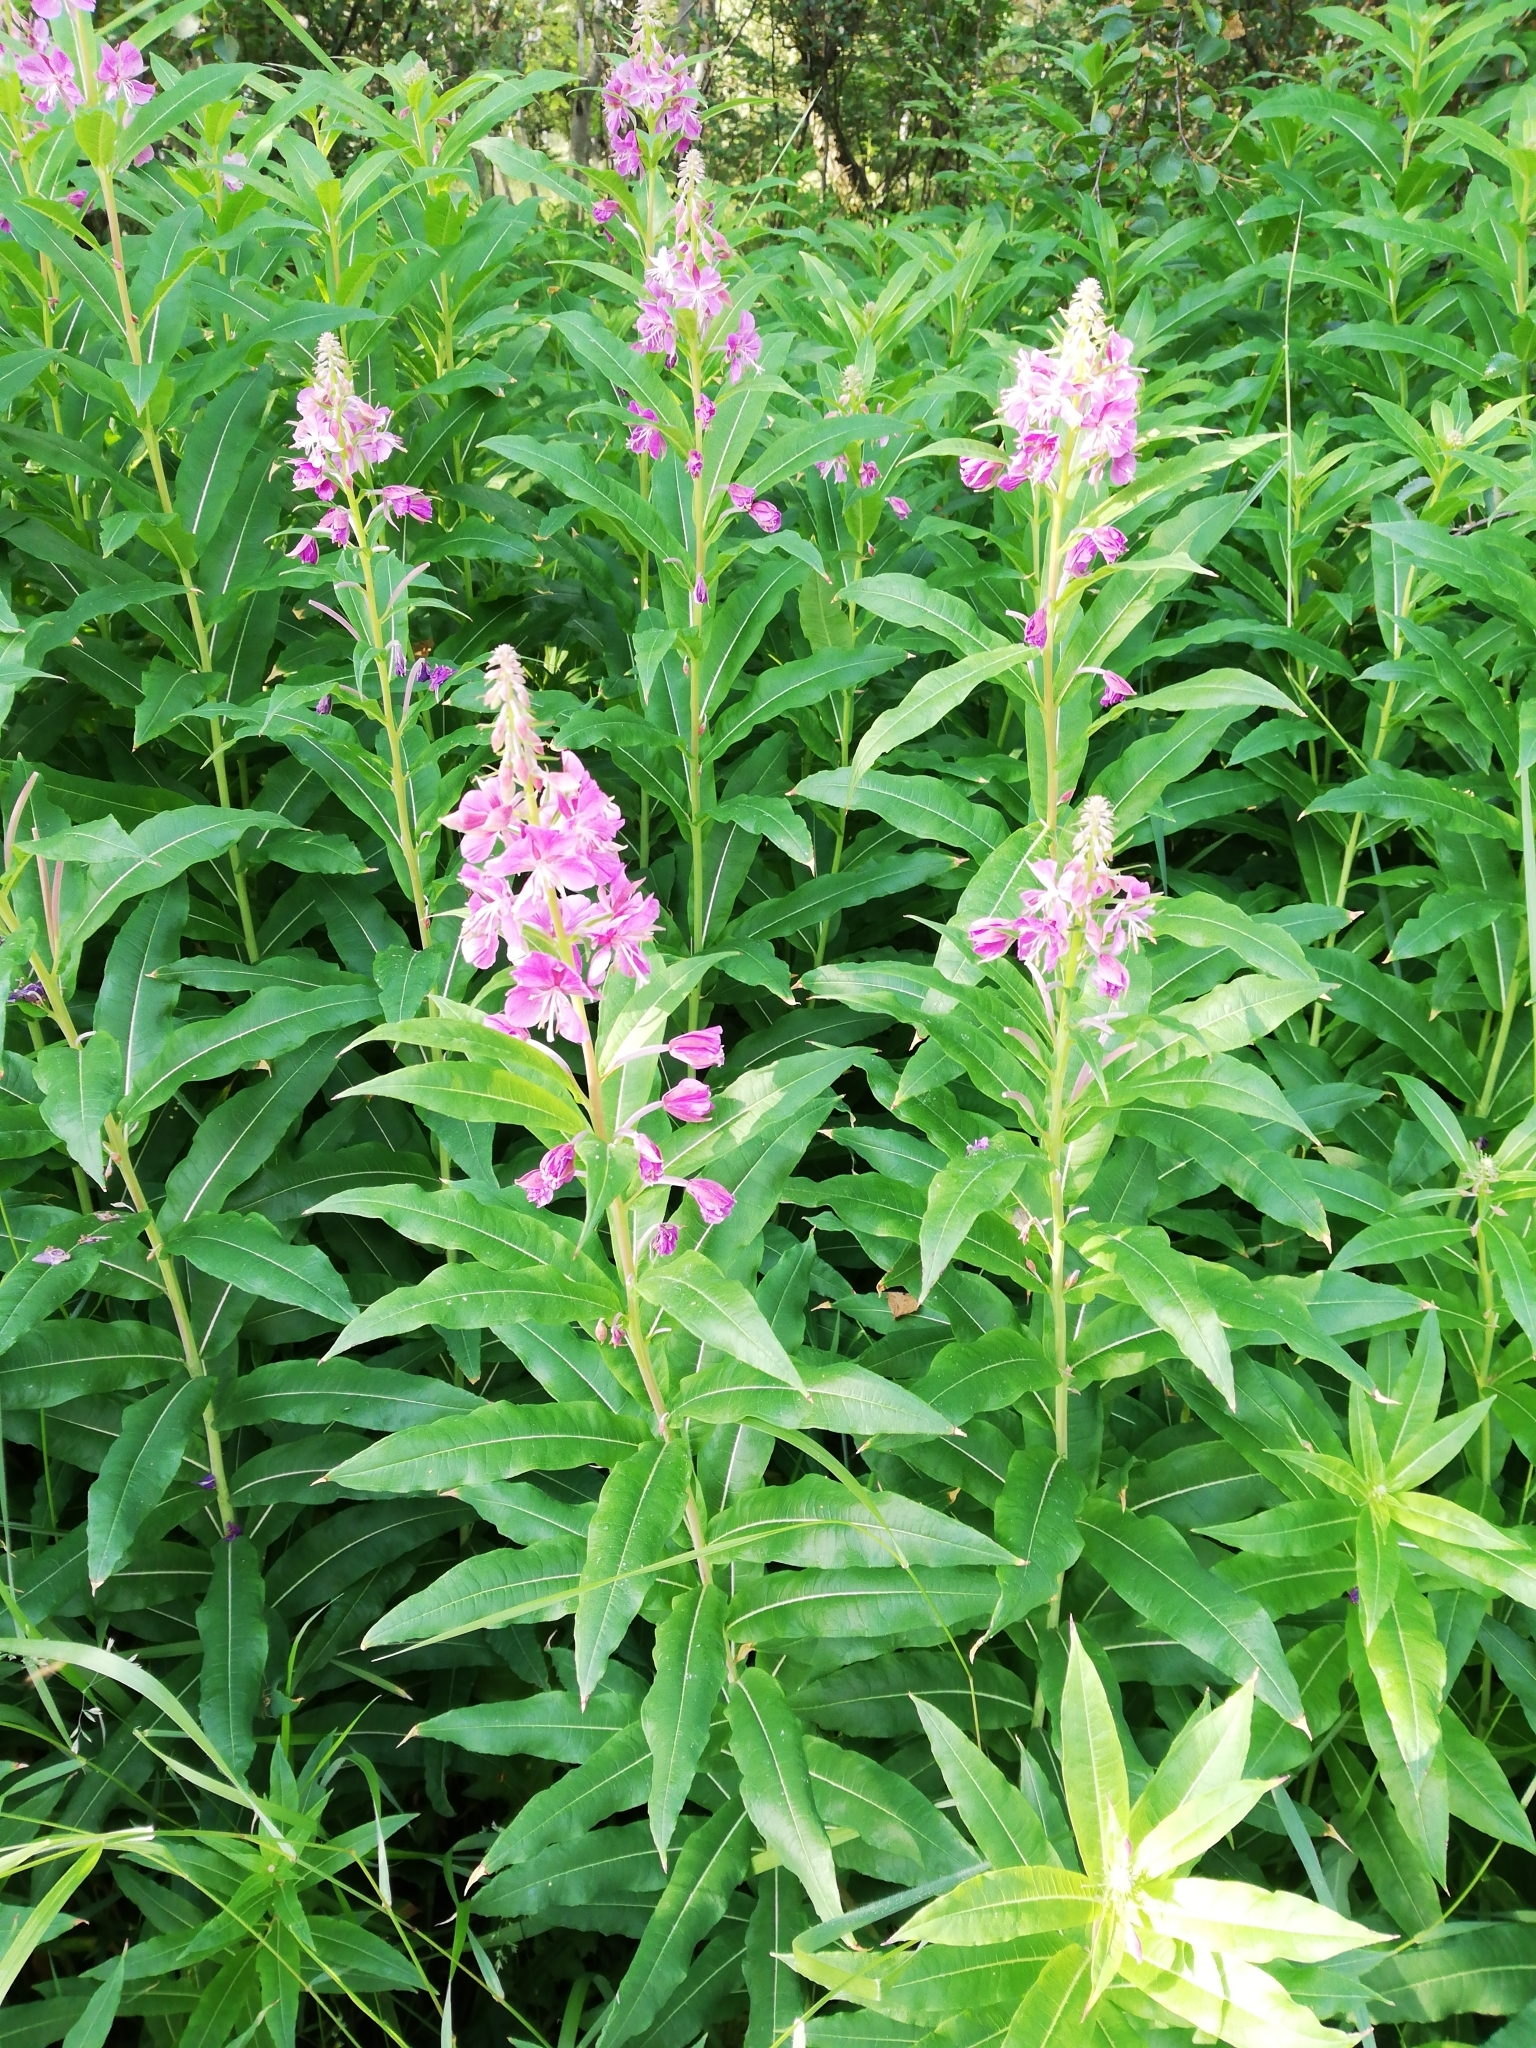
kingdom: Plantae
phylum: Tracheophyta
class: Magnoliopsida
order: Myrtales
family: Onagraceae
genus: Chamaenerion
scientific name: Chamaenerion angustifolium
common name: Fireweed
